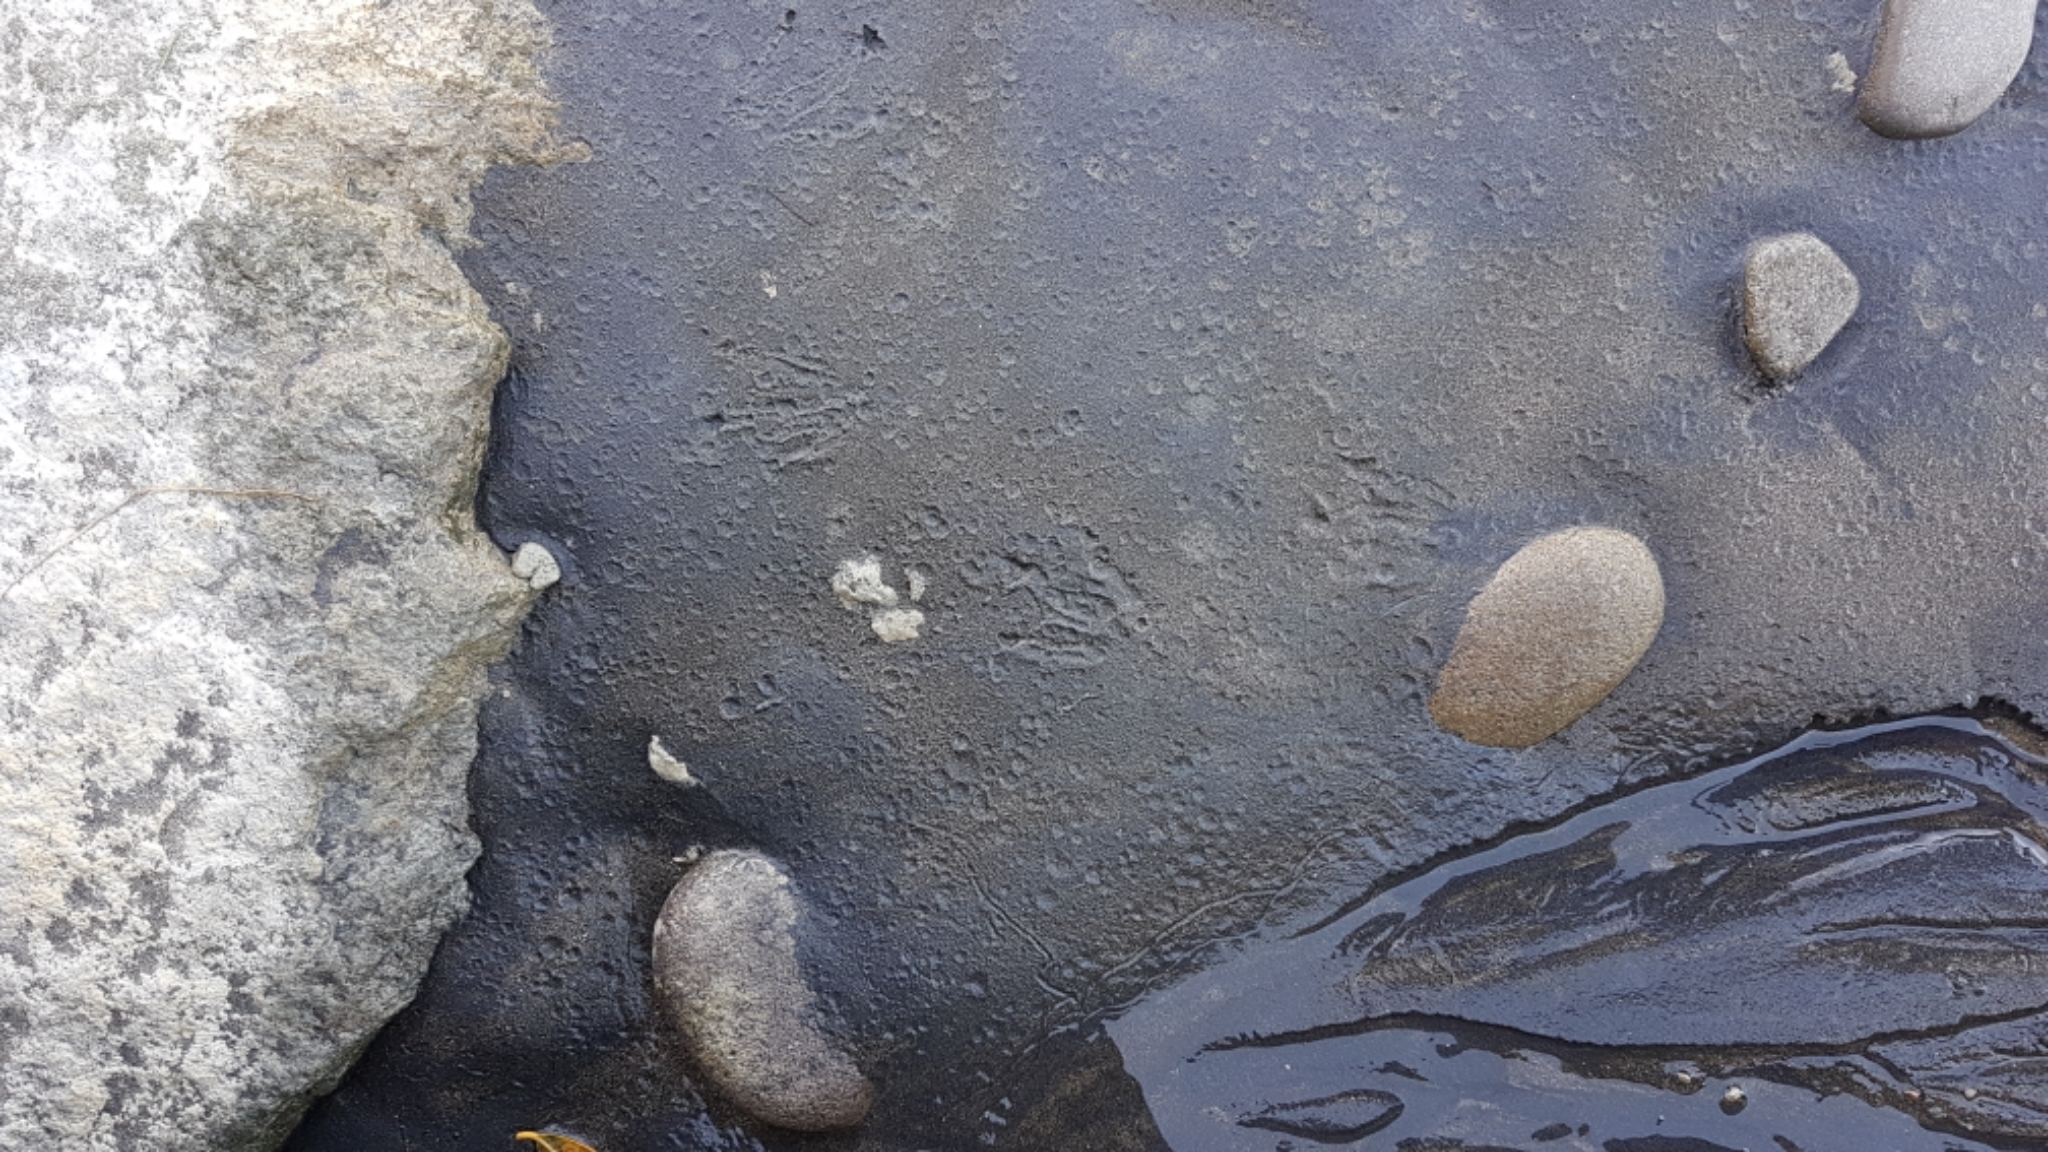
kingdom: Animalia
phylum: Chordata
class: Aves
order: Sphenisciformes
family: Spheniscidae
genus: Eudyptula
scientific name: Eudyptula minor
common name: Little penguin
